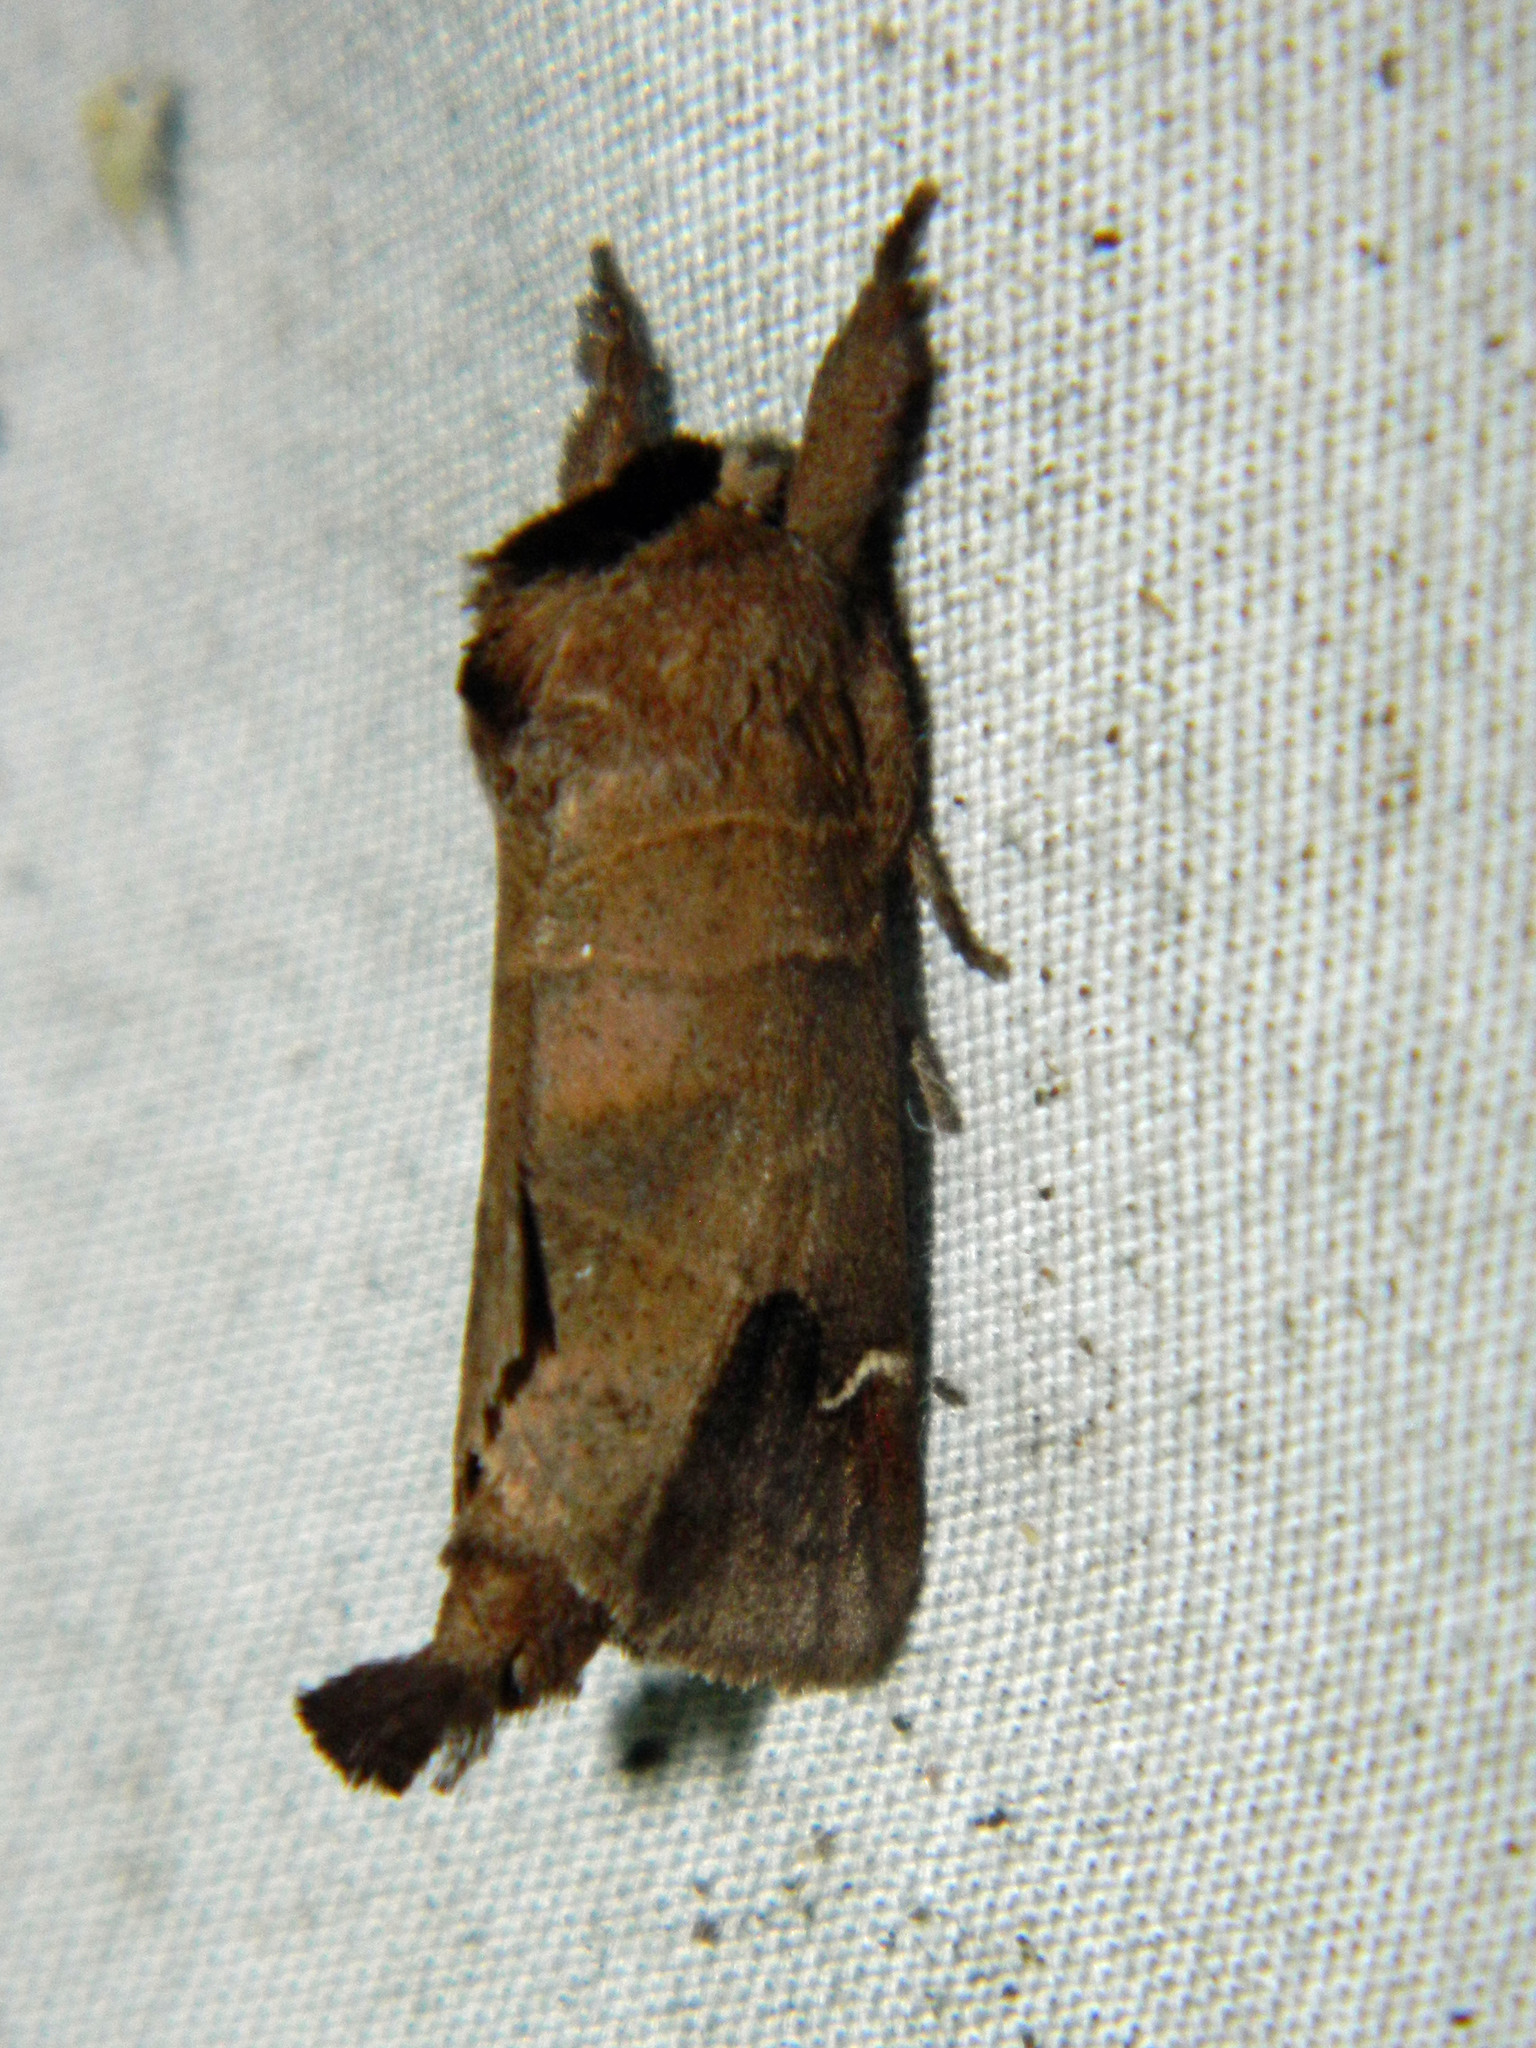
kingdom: Animalia
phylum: Arthropoda
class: Insecta
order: Lepidoptera
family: Notodontidae
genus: Clostera
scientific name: Clostera albosigma
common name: Sigmoid prominent
